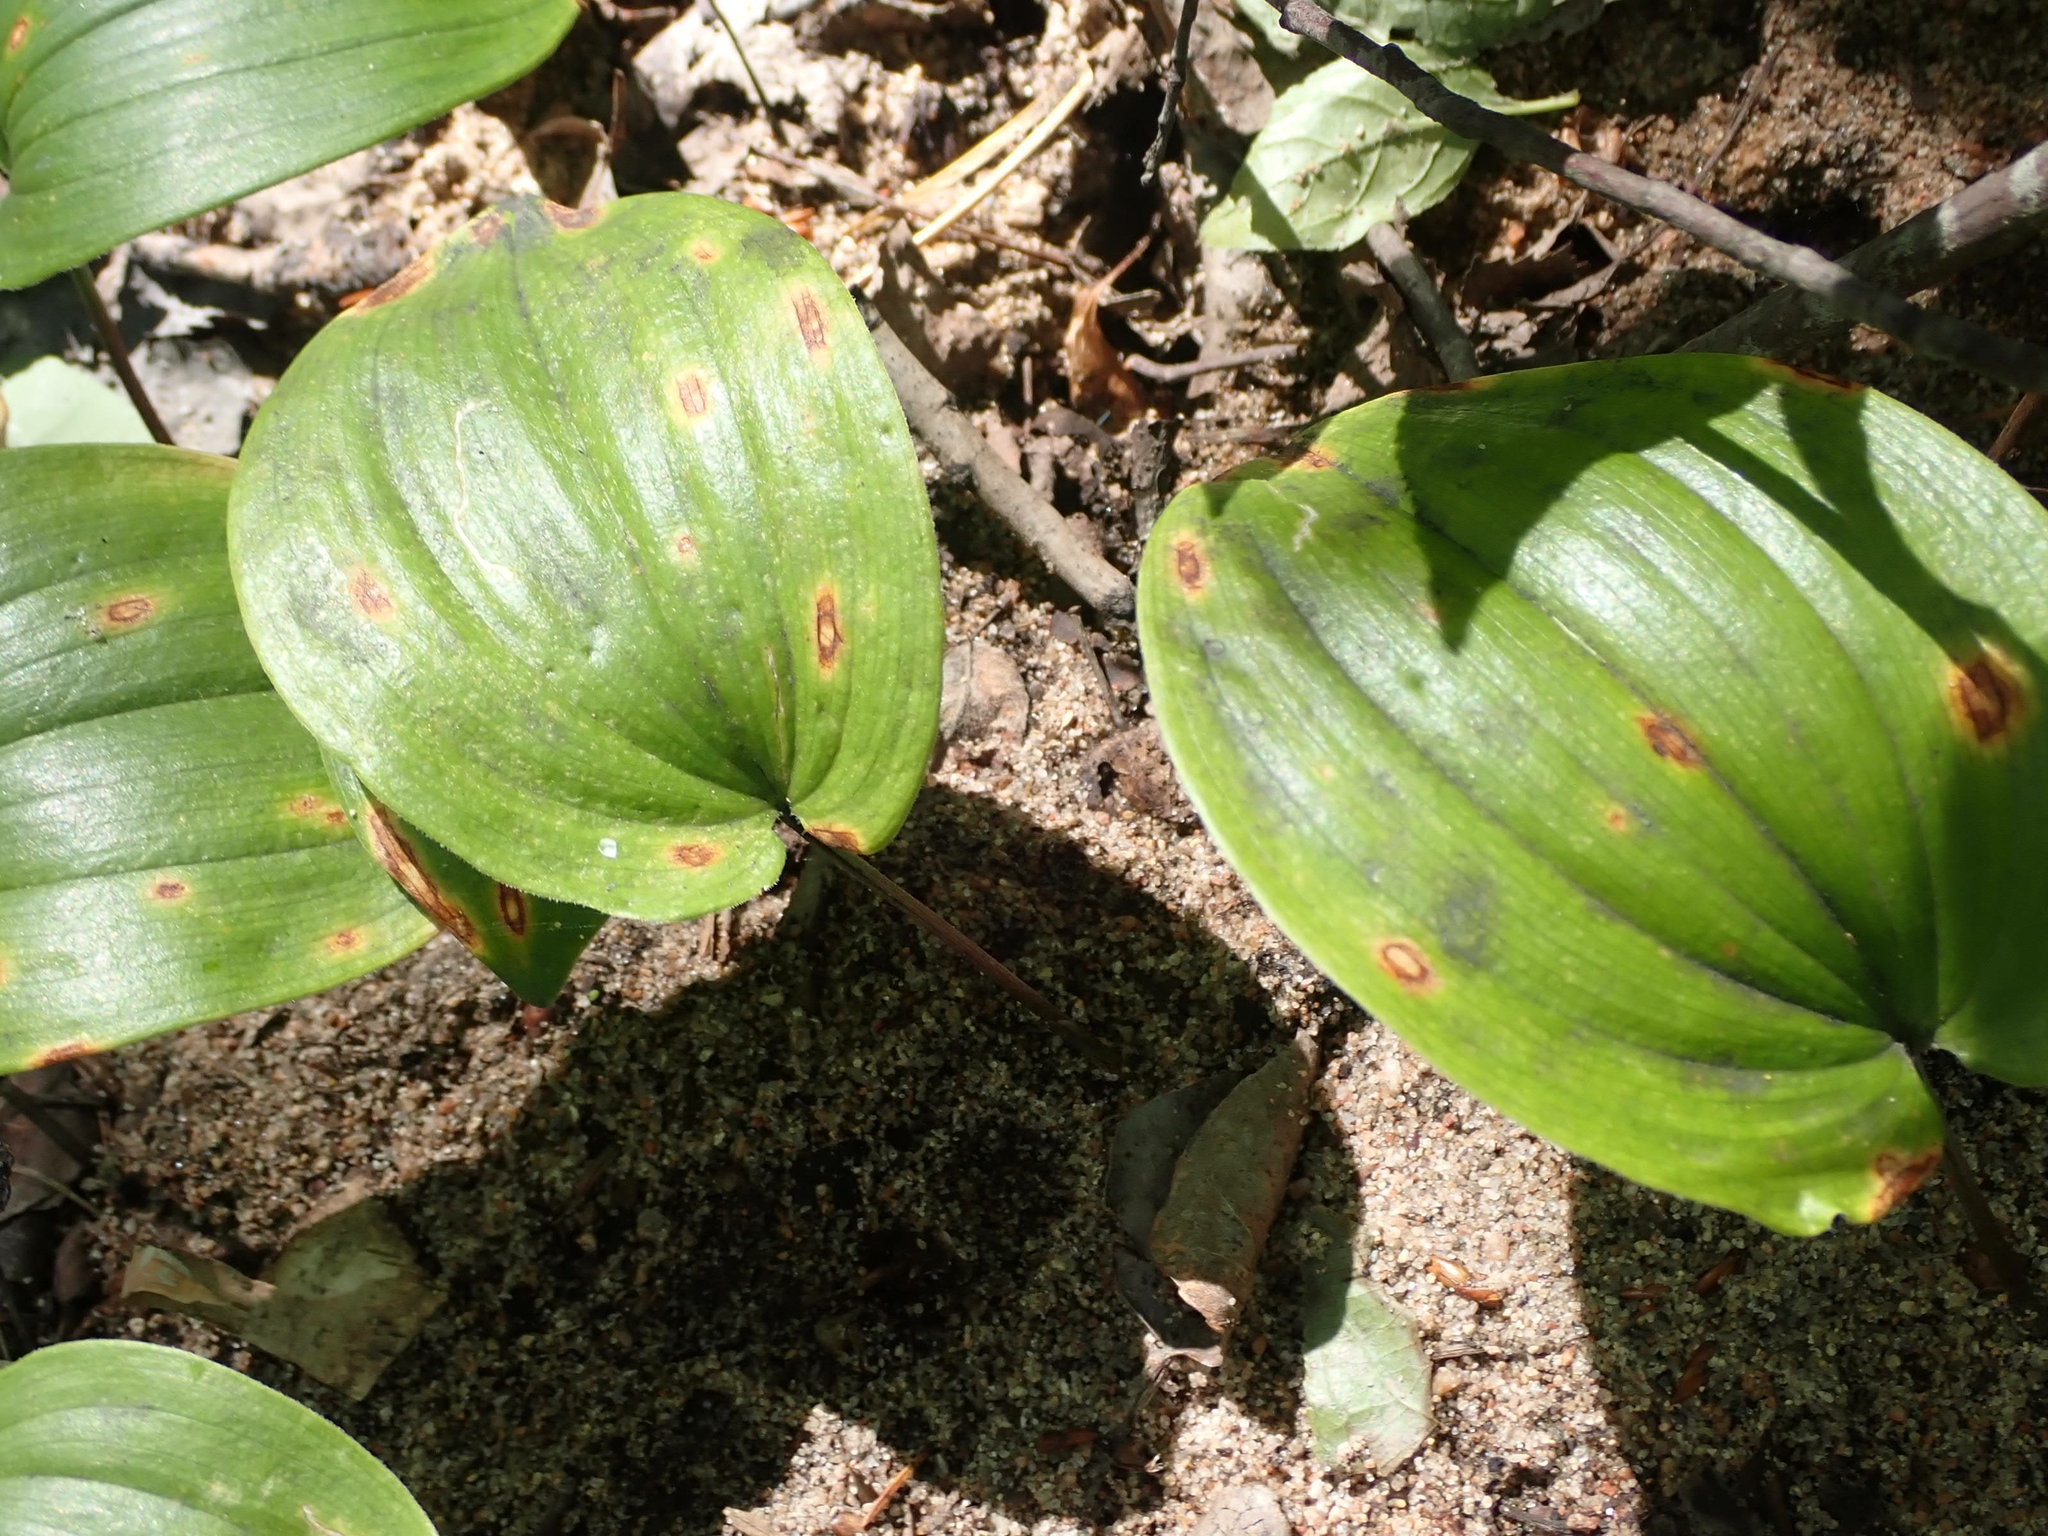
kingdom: Plantae
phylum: Tracheophyta
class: Liliopsida
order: Asparagales
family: Asparagaceae
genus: Maianthemum
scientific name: Maianthemum canadense
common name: False lily-of-the-valley
